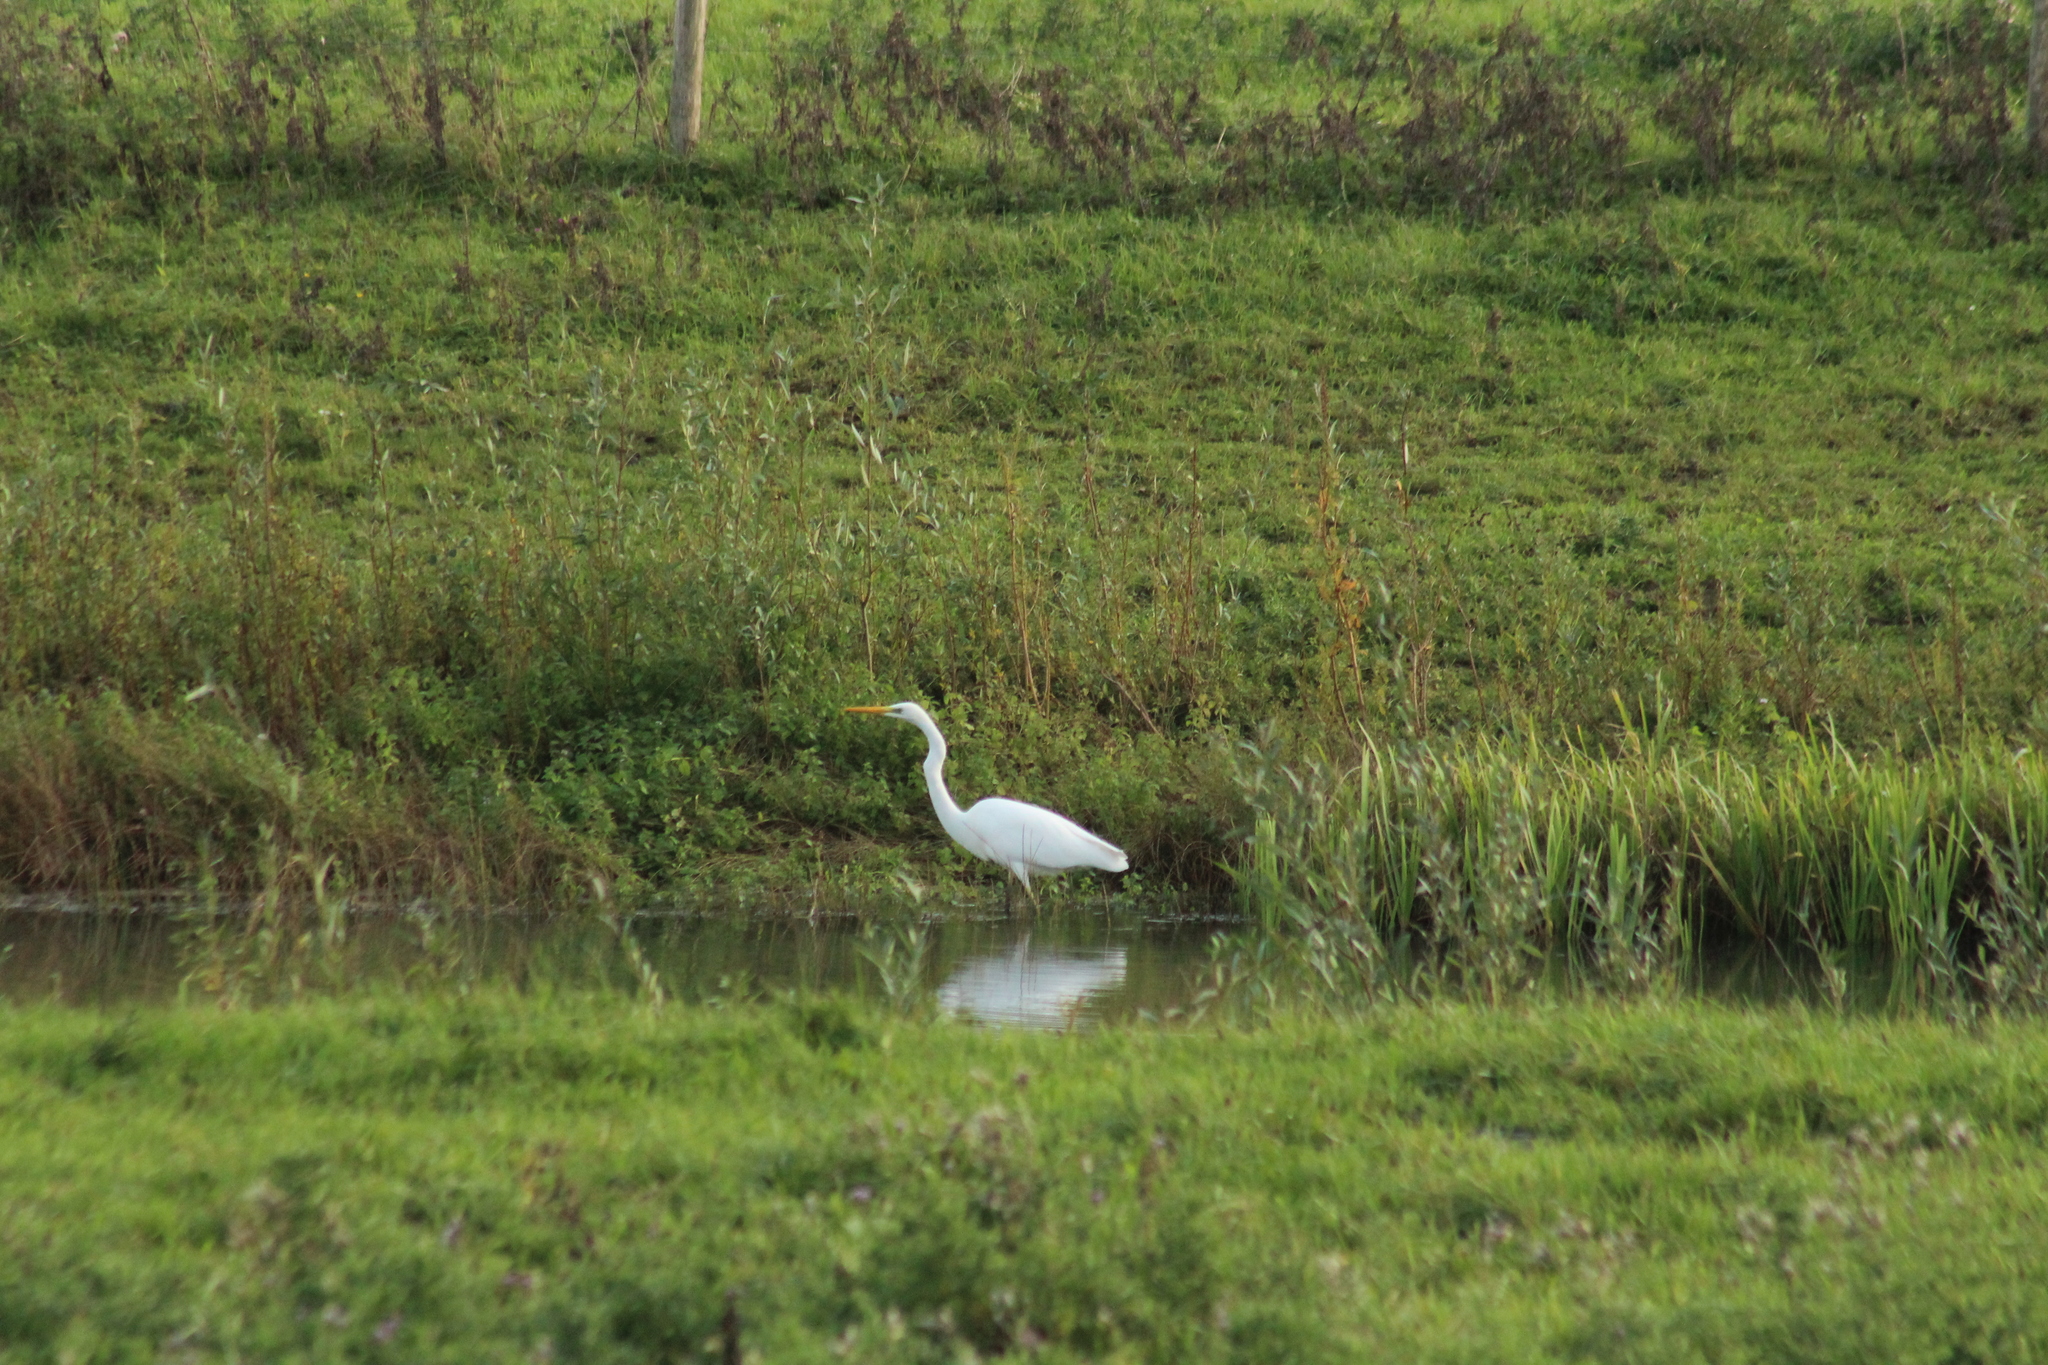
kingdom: Animalia
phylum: Chordata
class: Aves
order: Pelecaniformes
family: Ardeidae
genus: Ardea
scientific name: Ardea alba
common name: Great egret
